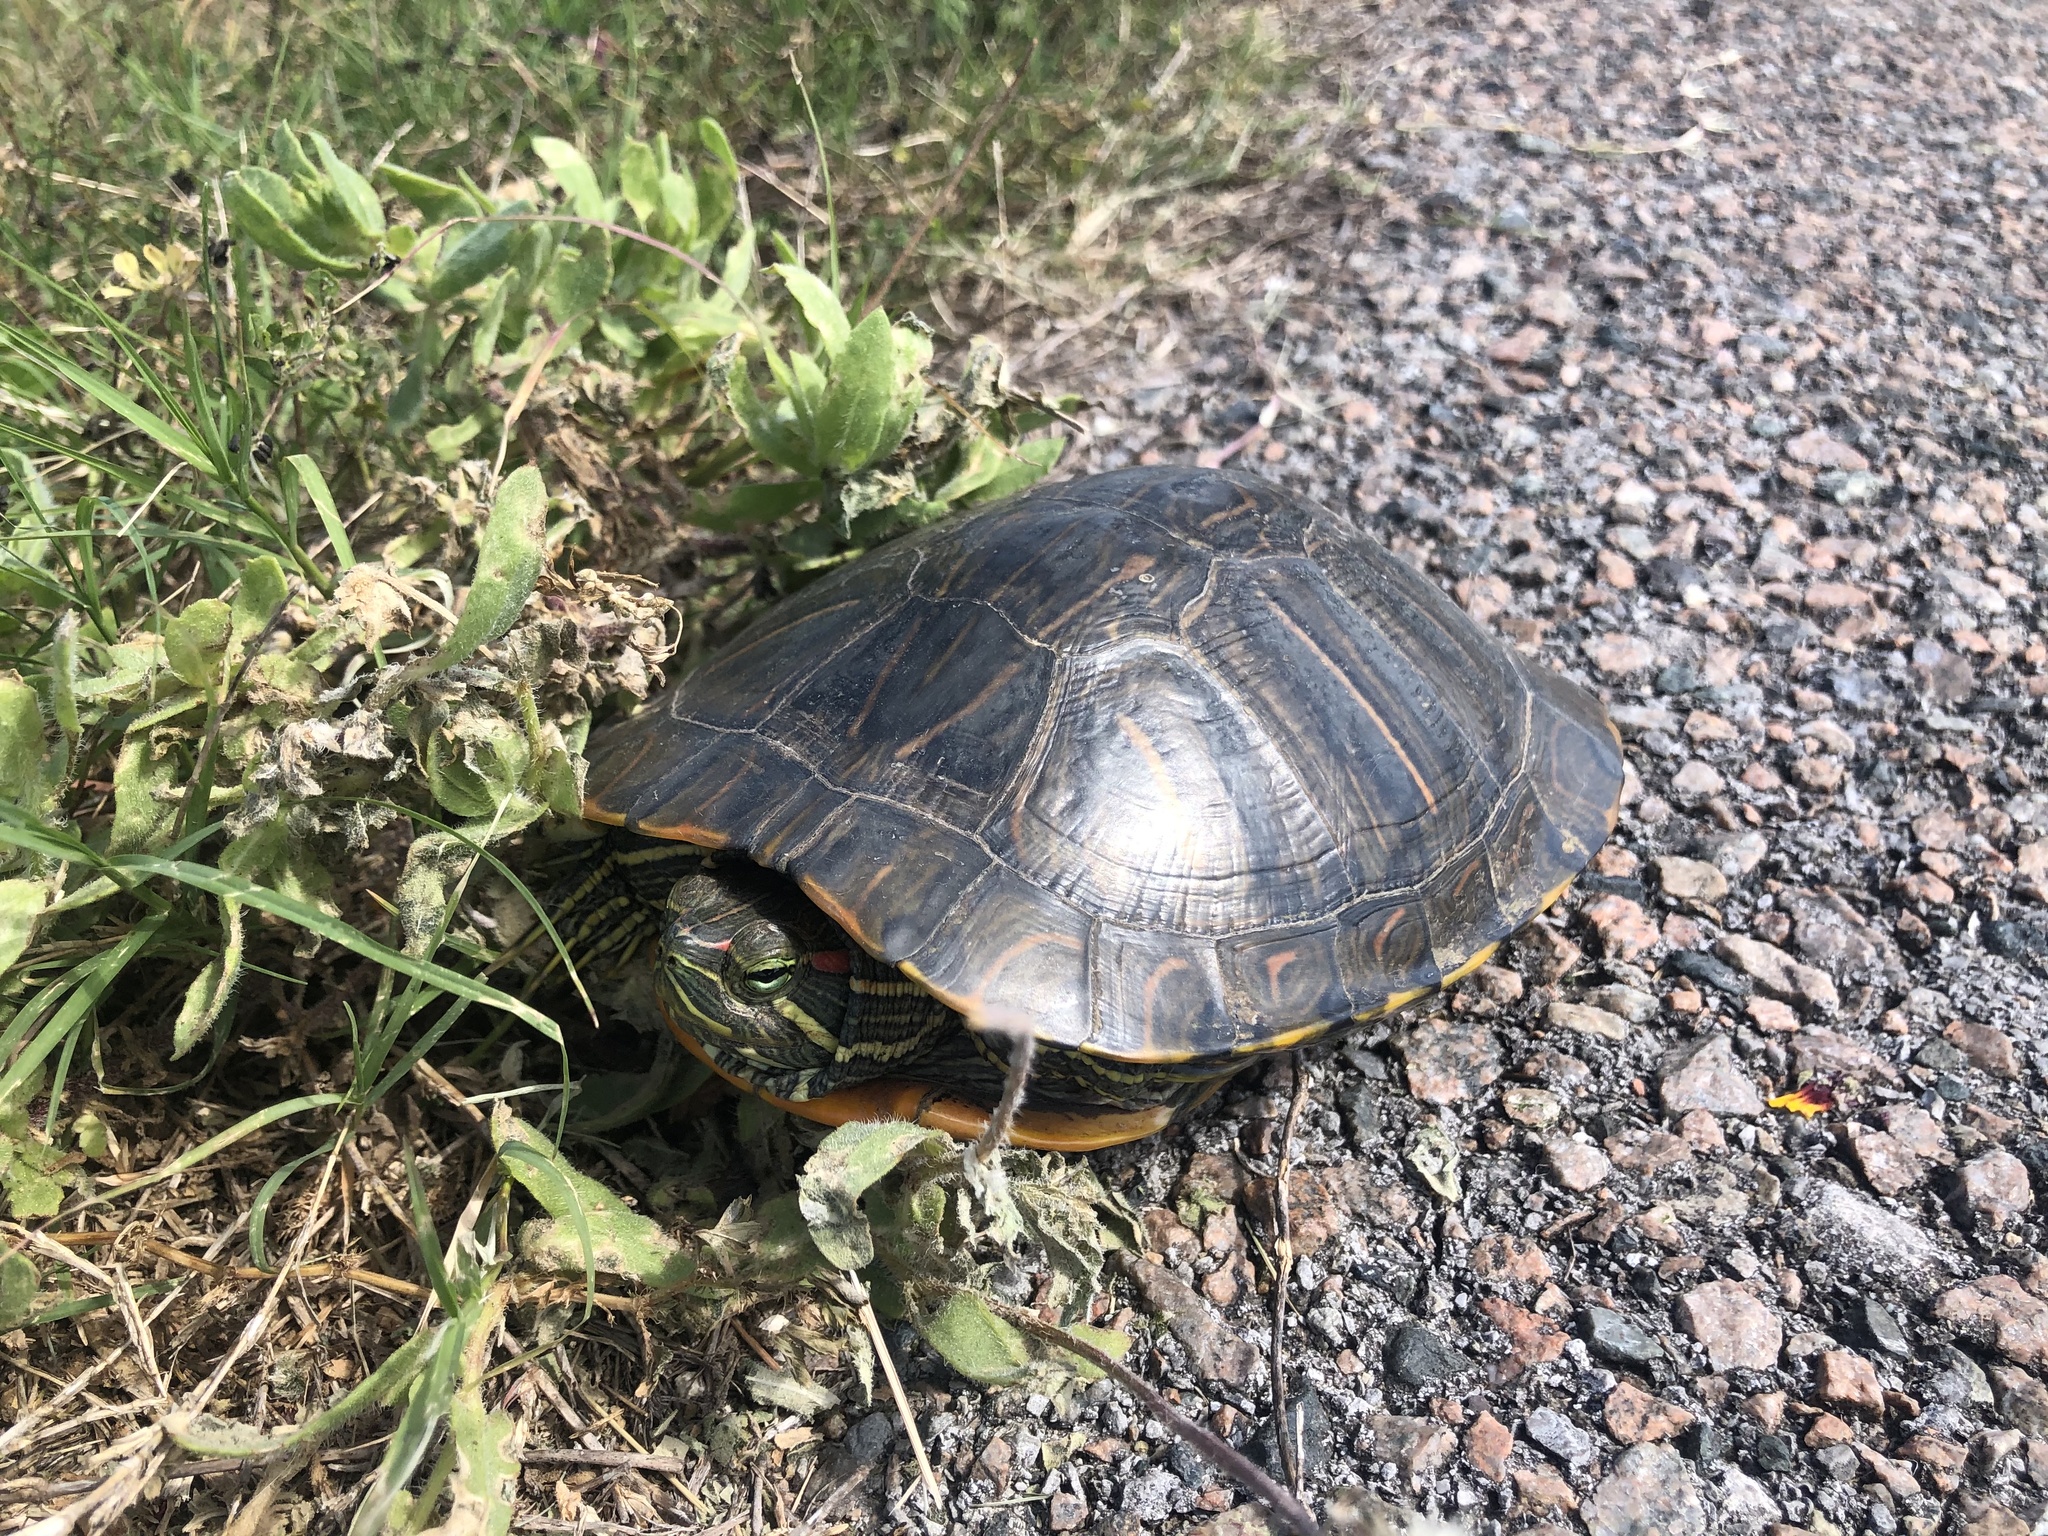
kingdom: Animalia
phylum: Chordata
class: Testudines
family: Emydidae
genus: Trachemys
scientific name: Trachemys scripta
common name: Slider
